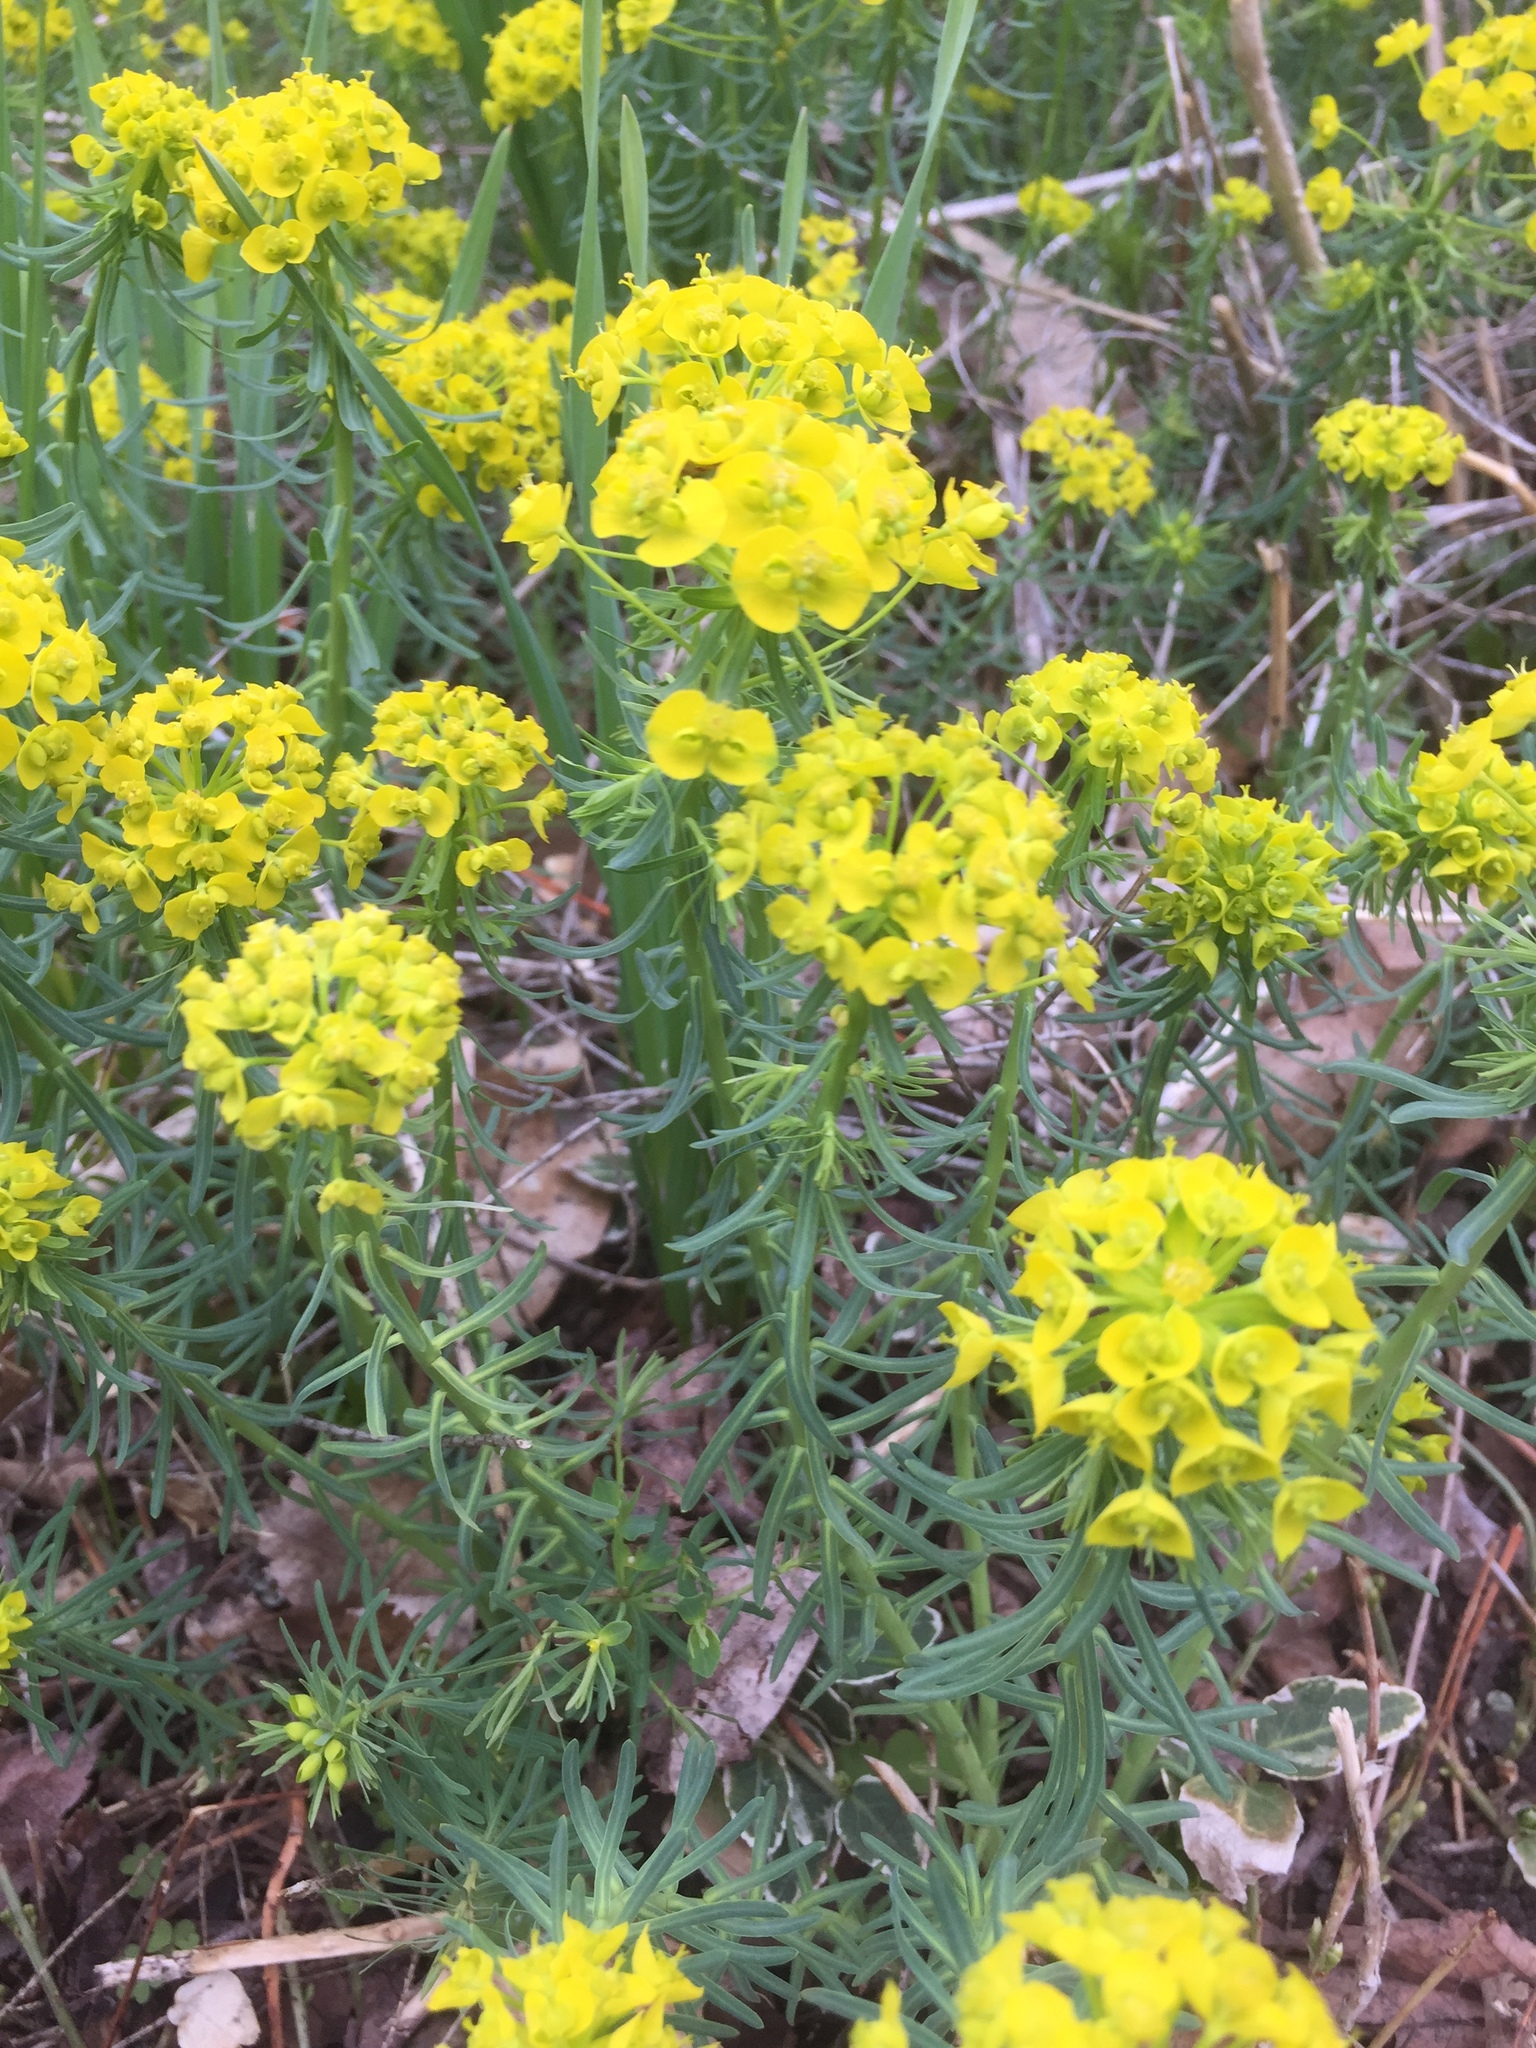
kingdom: Plantae
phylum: Tracheophyta
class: Magnoliopsida
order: Malpighiales
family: Euphorbiaceae
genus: Euphorbia
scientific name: Euphorbia cyparissias
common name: Cypress spurge
